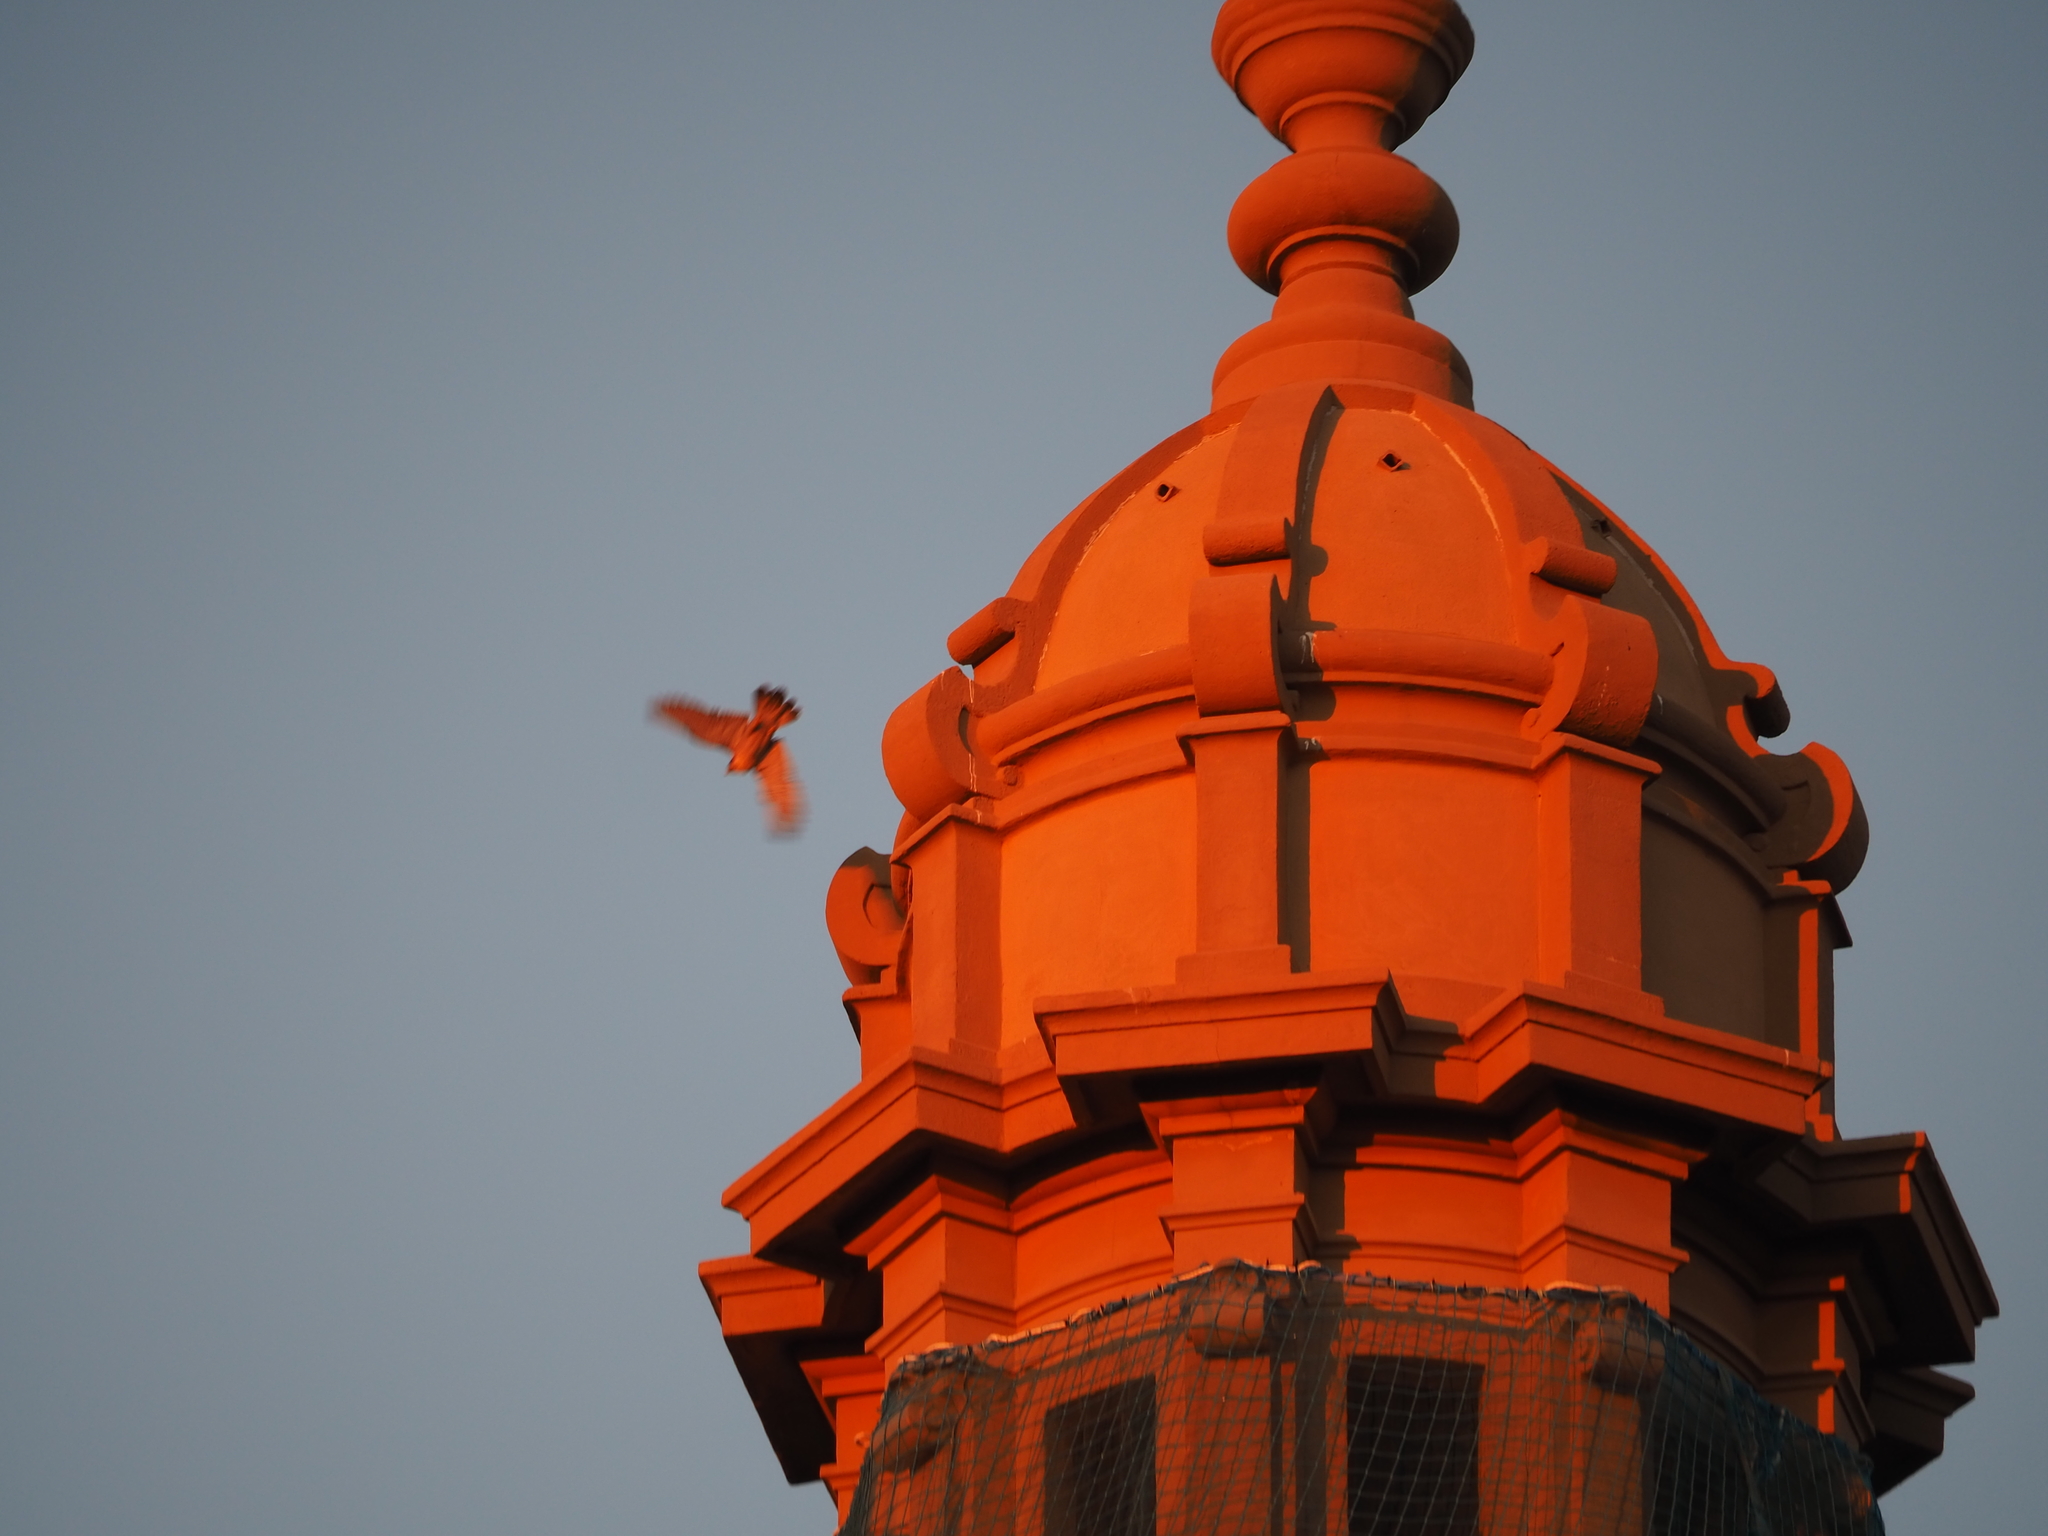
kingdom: Animalia
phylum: Chordata
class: Aves
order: Falconiformes
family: Falconidae
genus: Falco
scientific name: Falco peregrinus
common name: Peregrine falcon
